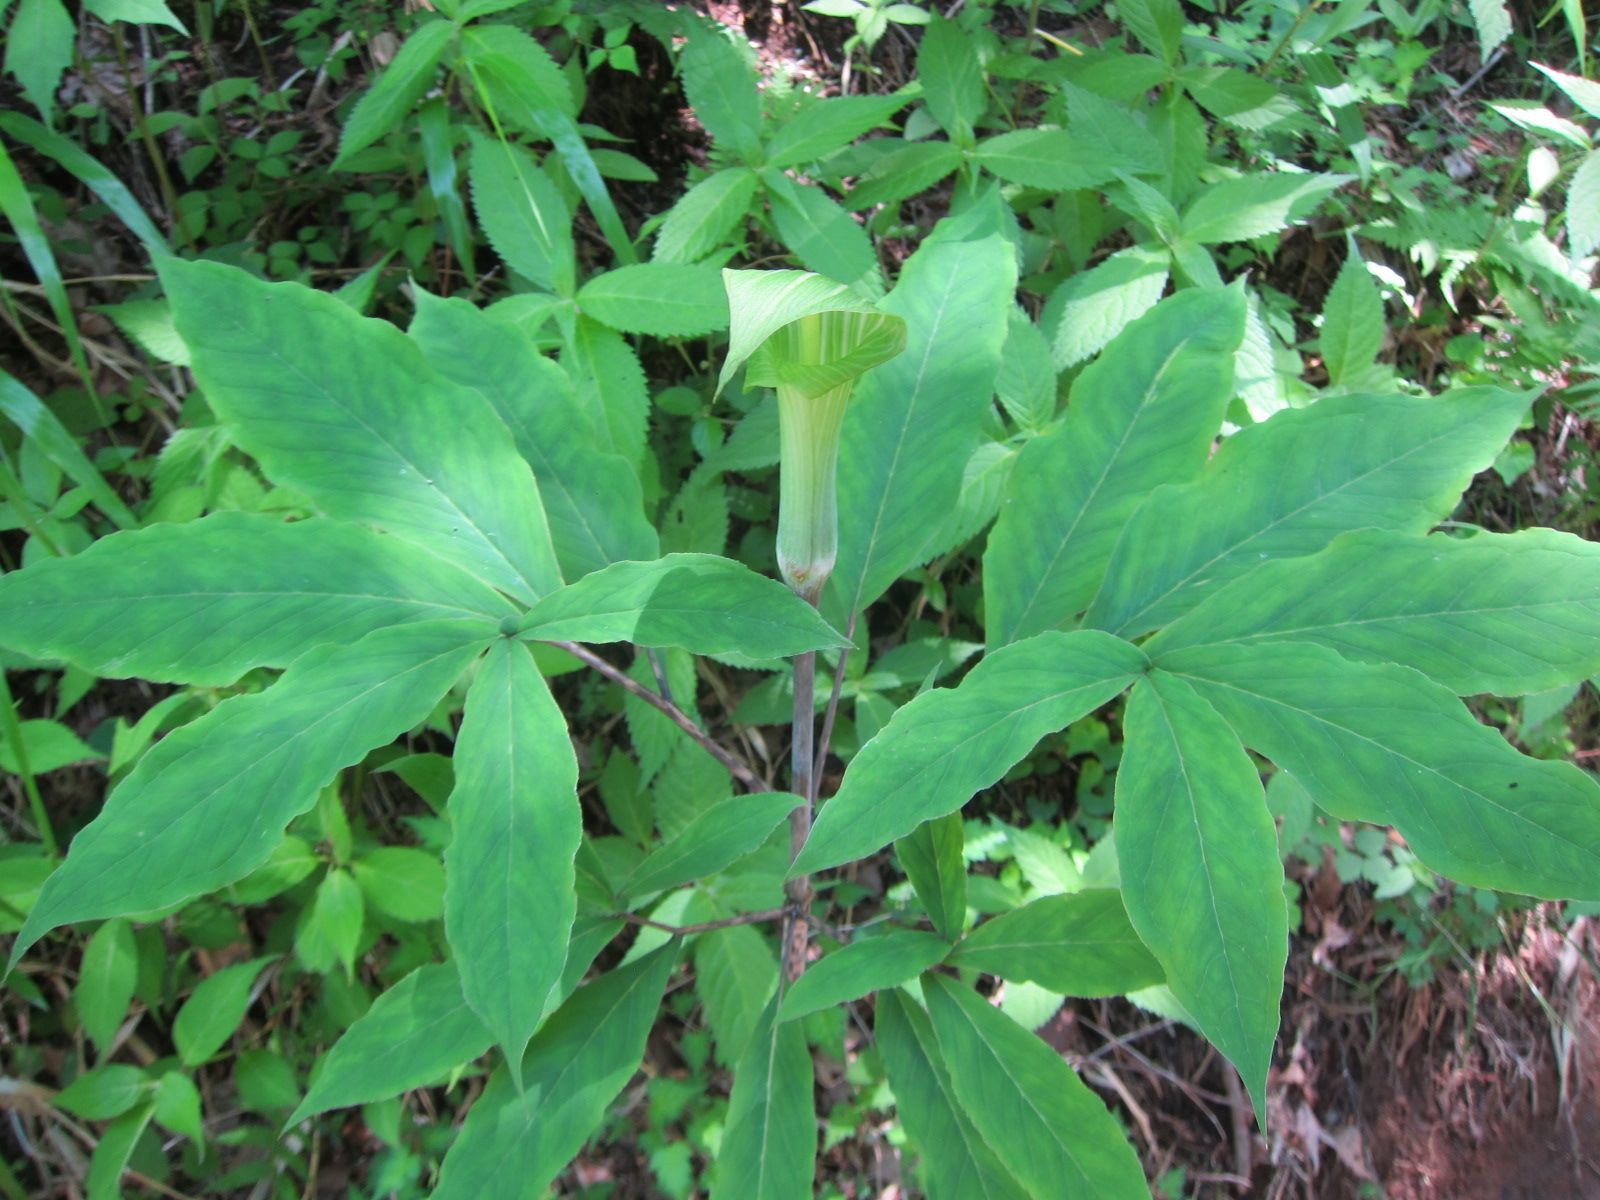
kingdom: Plantae
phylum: Tracheophyta
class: Liliopsida
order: Alismatales
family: Araceae
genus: Arisaema
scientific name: Arisaema serratum
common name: Japanese arisaema
